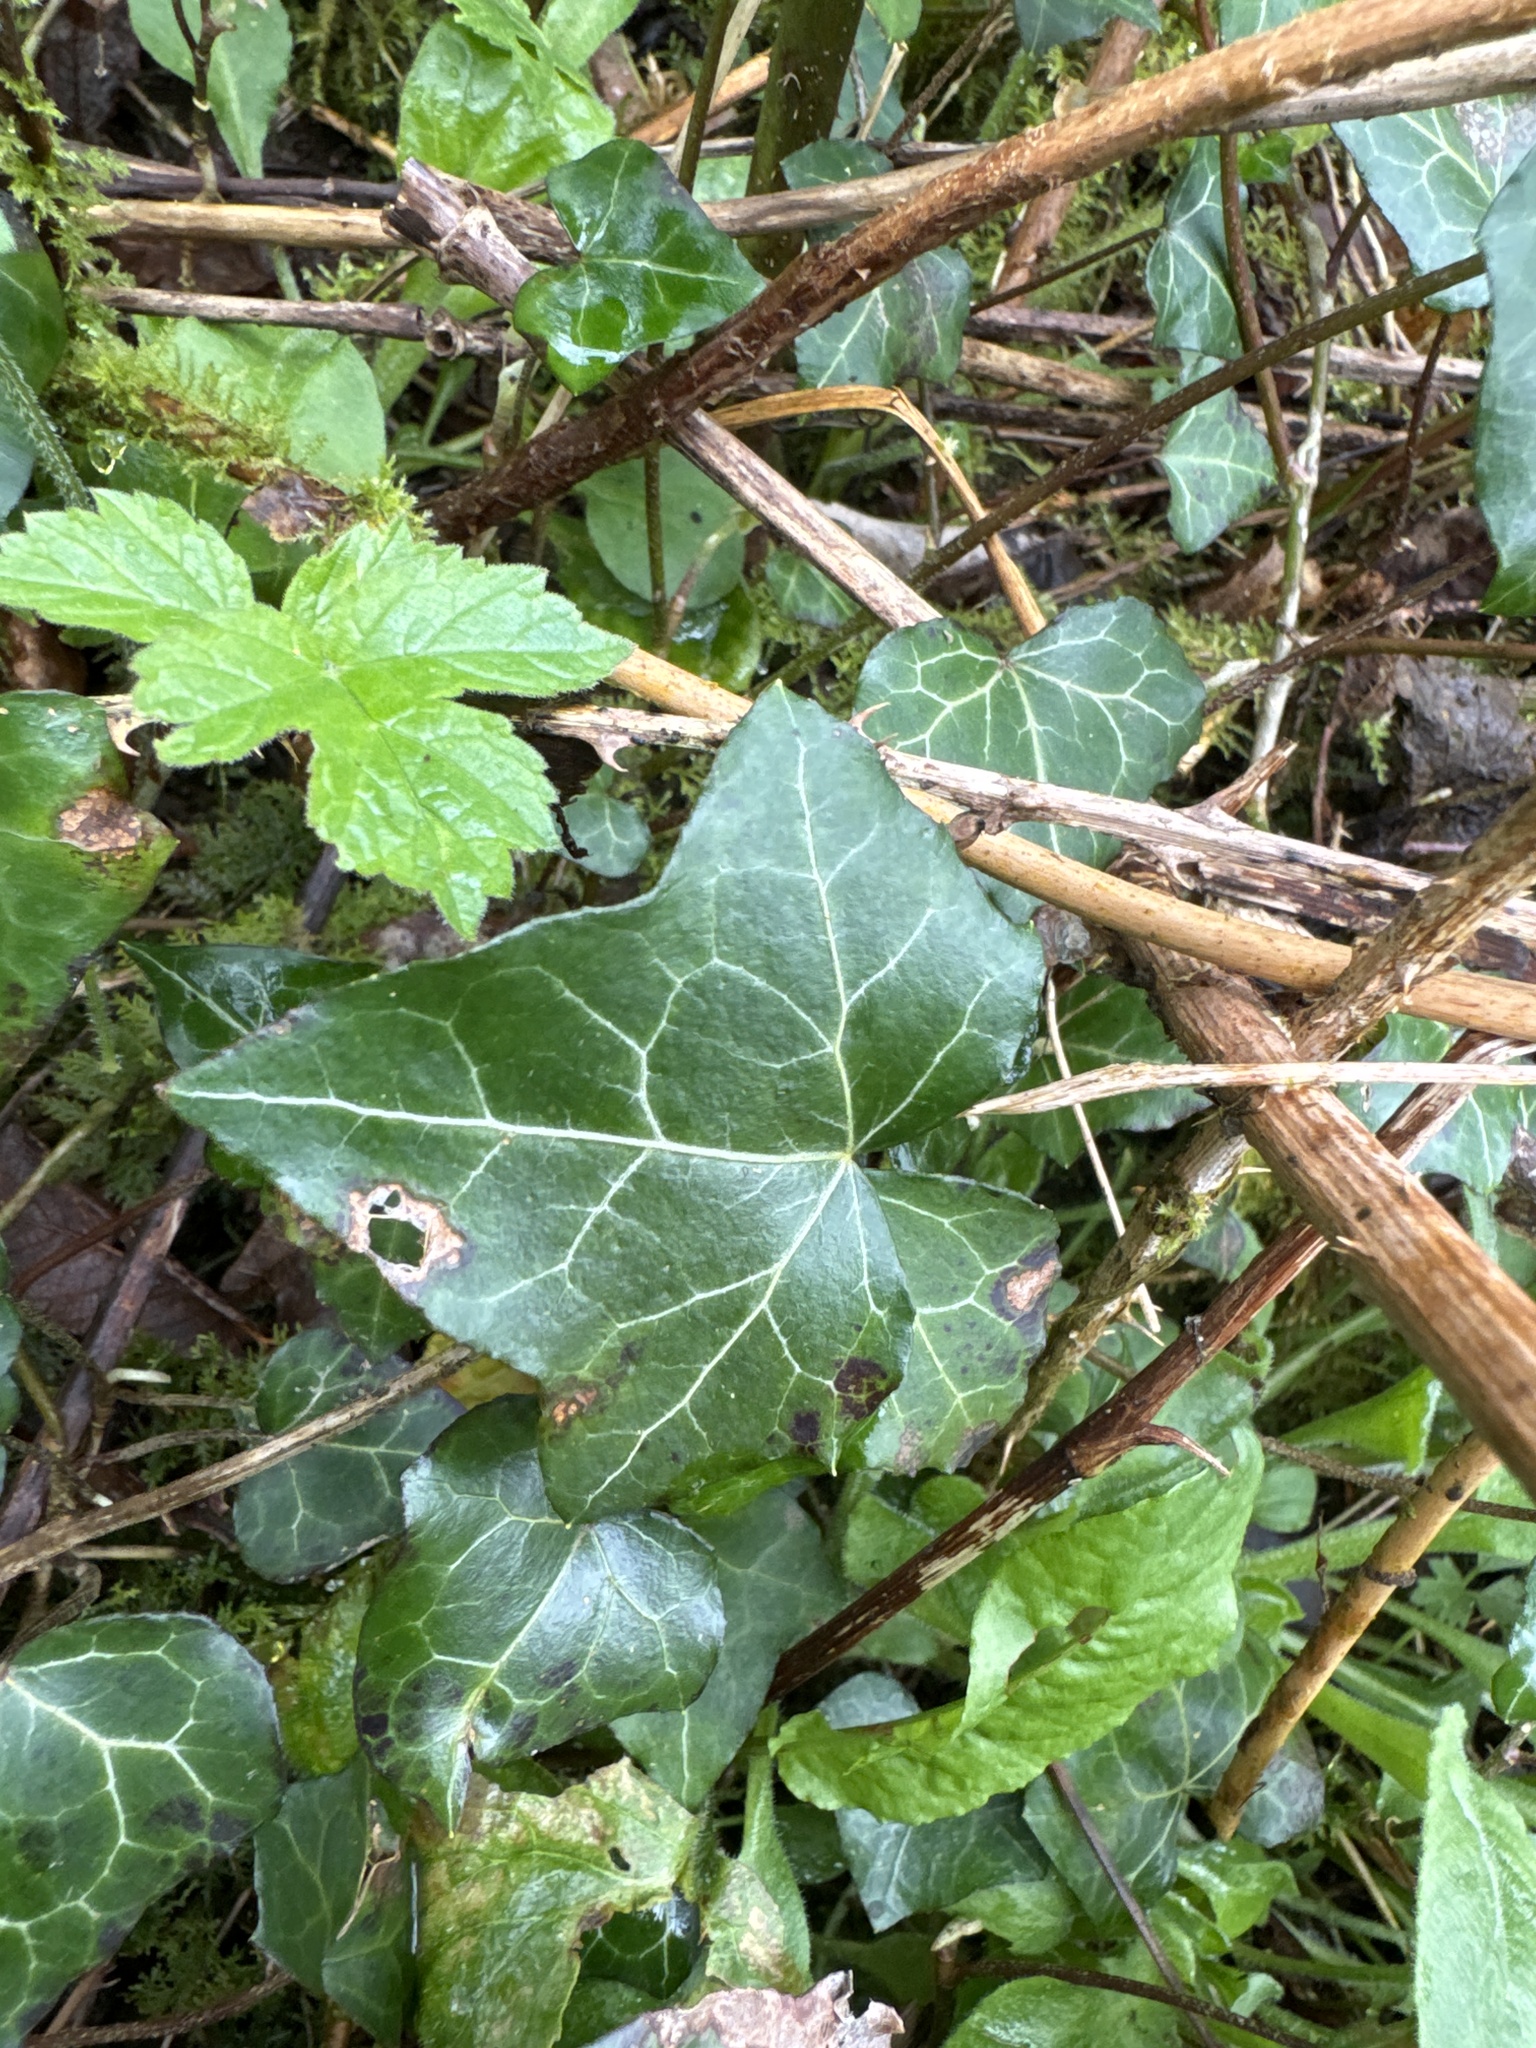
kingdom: Plantae
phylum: Tracheophyta
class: Magnoliopsida
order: Apiales
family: Araliaceae
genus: Hedera
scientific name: Hedera helix
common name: Ivy
